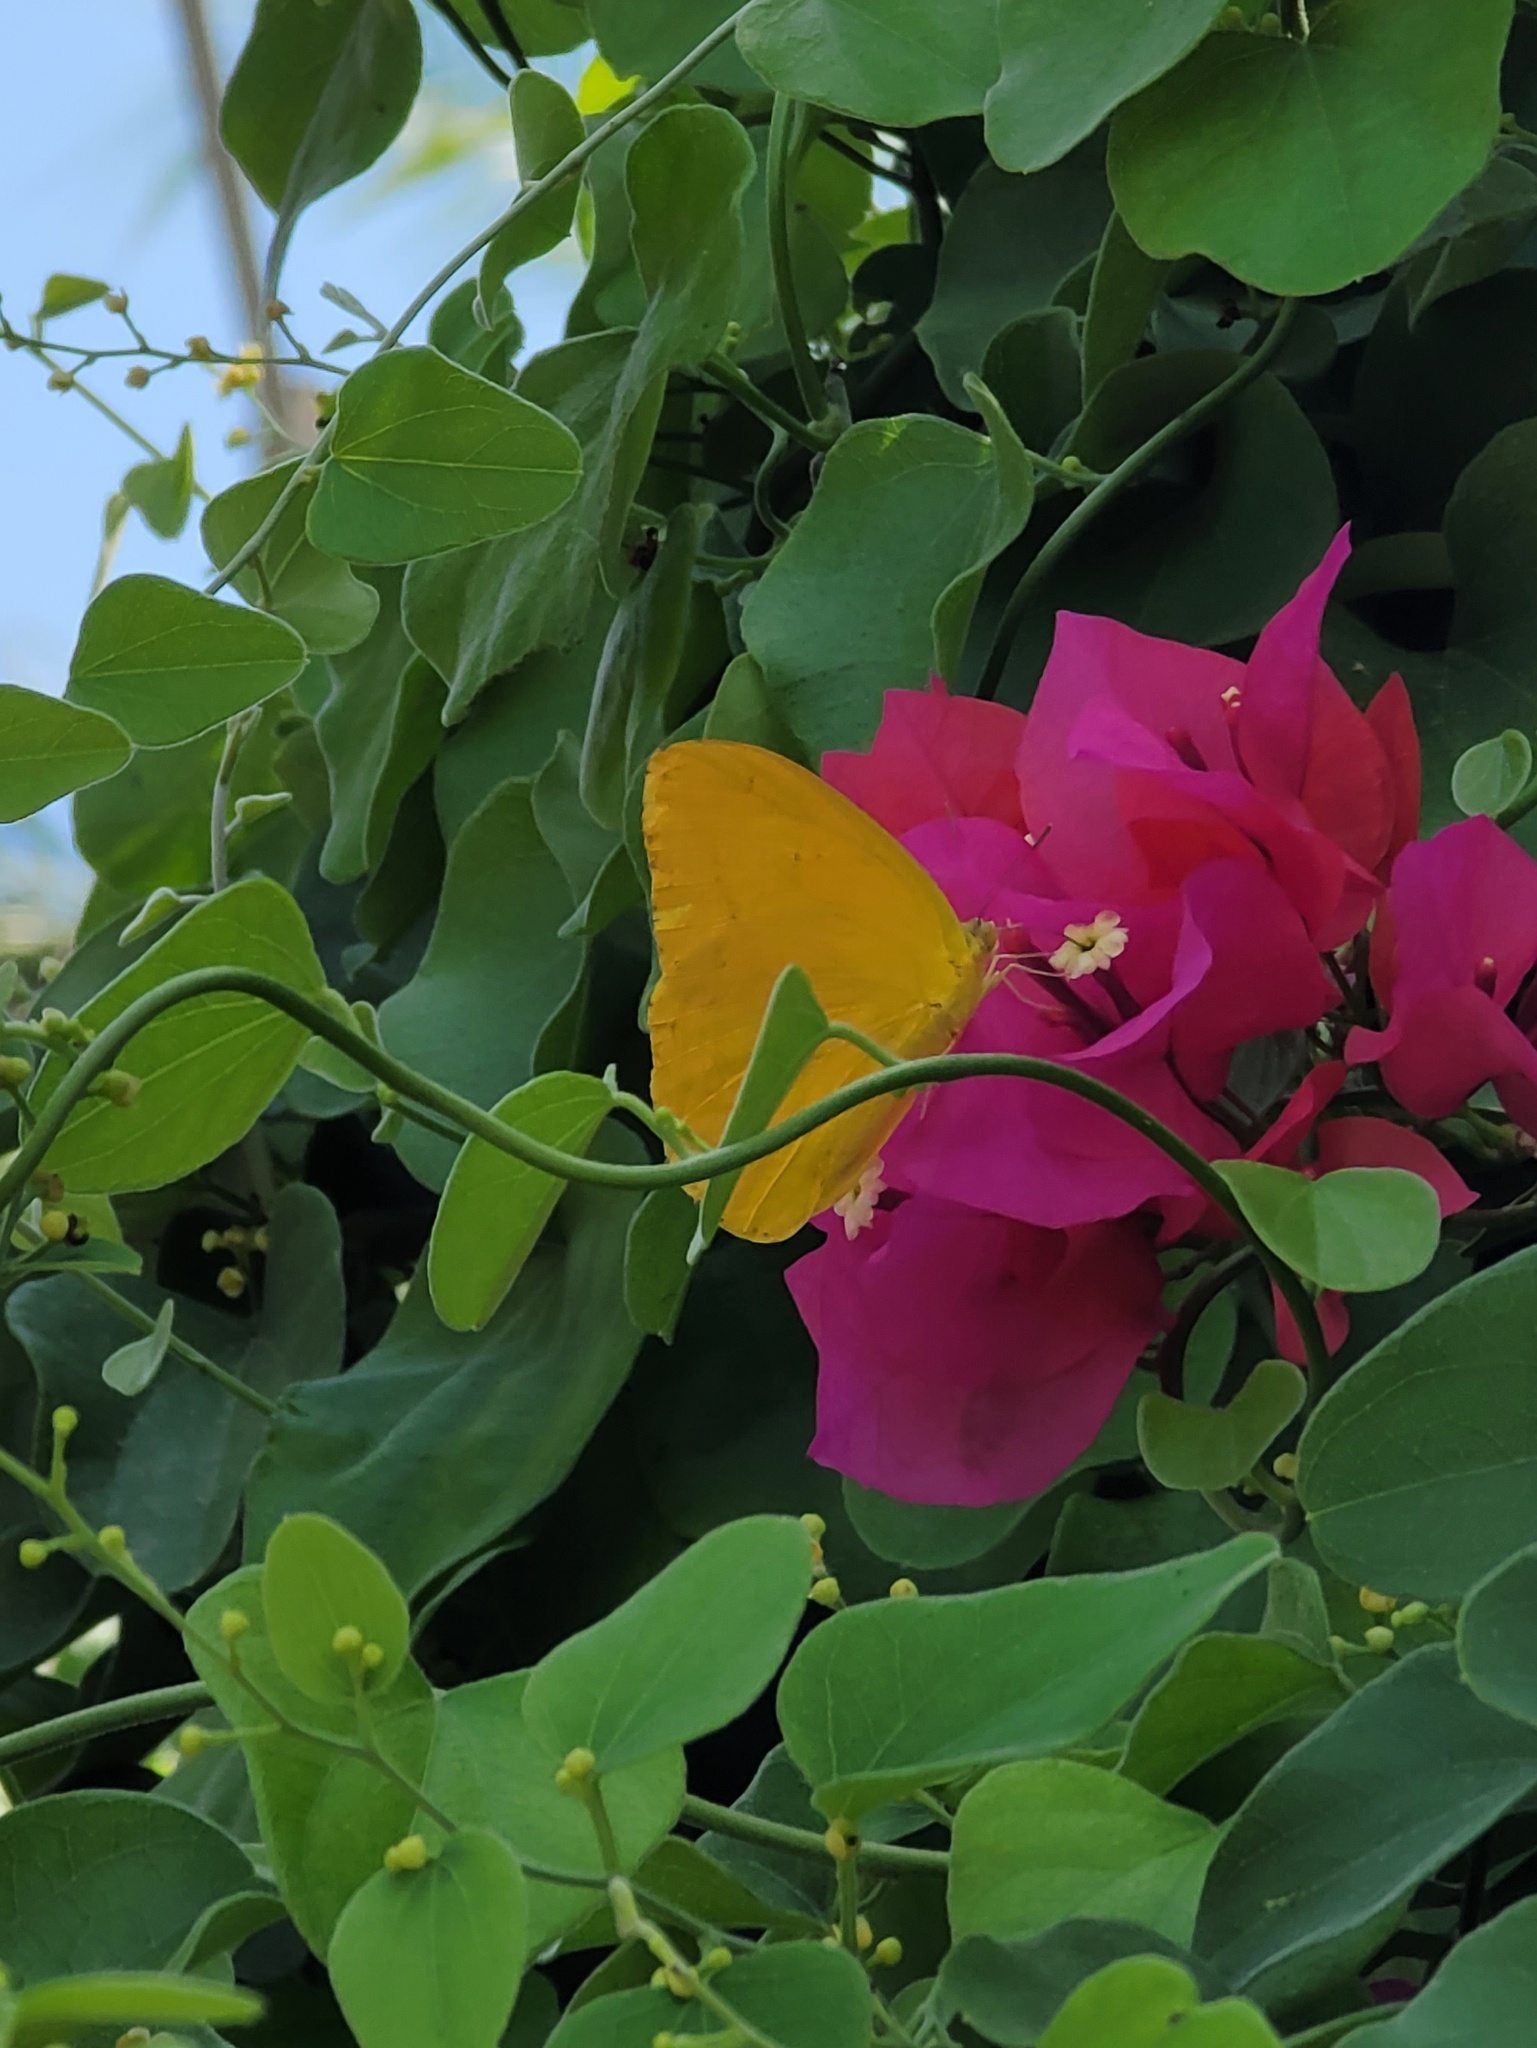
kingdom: Animalia
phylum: Arthropoda
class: Insecta
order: Lepidoptera
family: Pieridae
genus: Phoebis
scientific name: Phoebis agarithe
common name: Large orange sulphur
